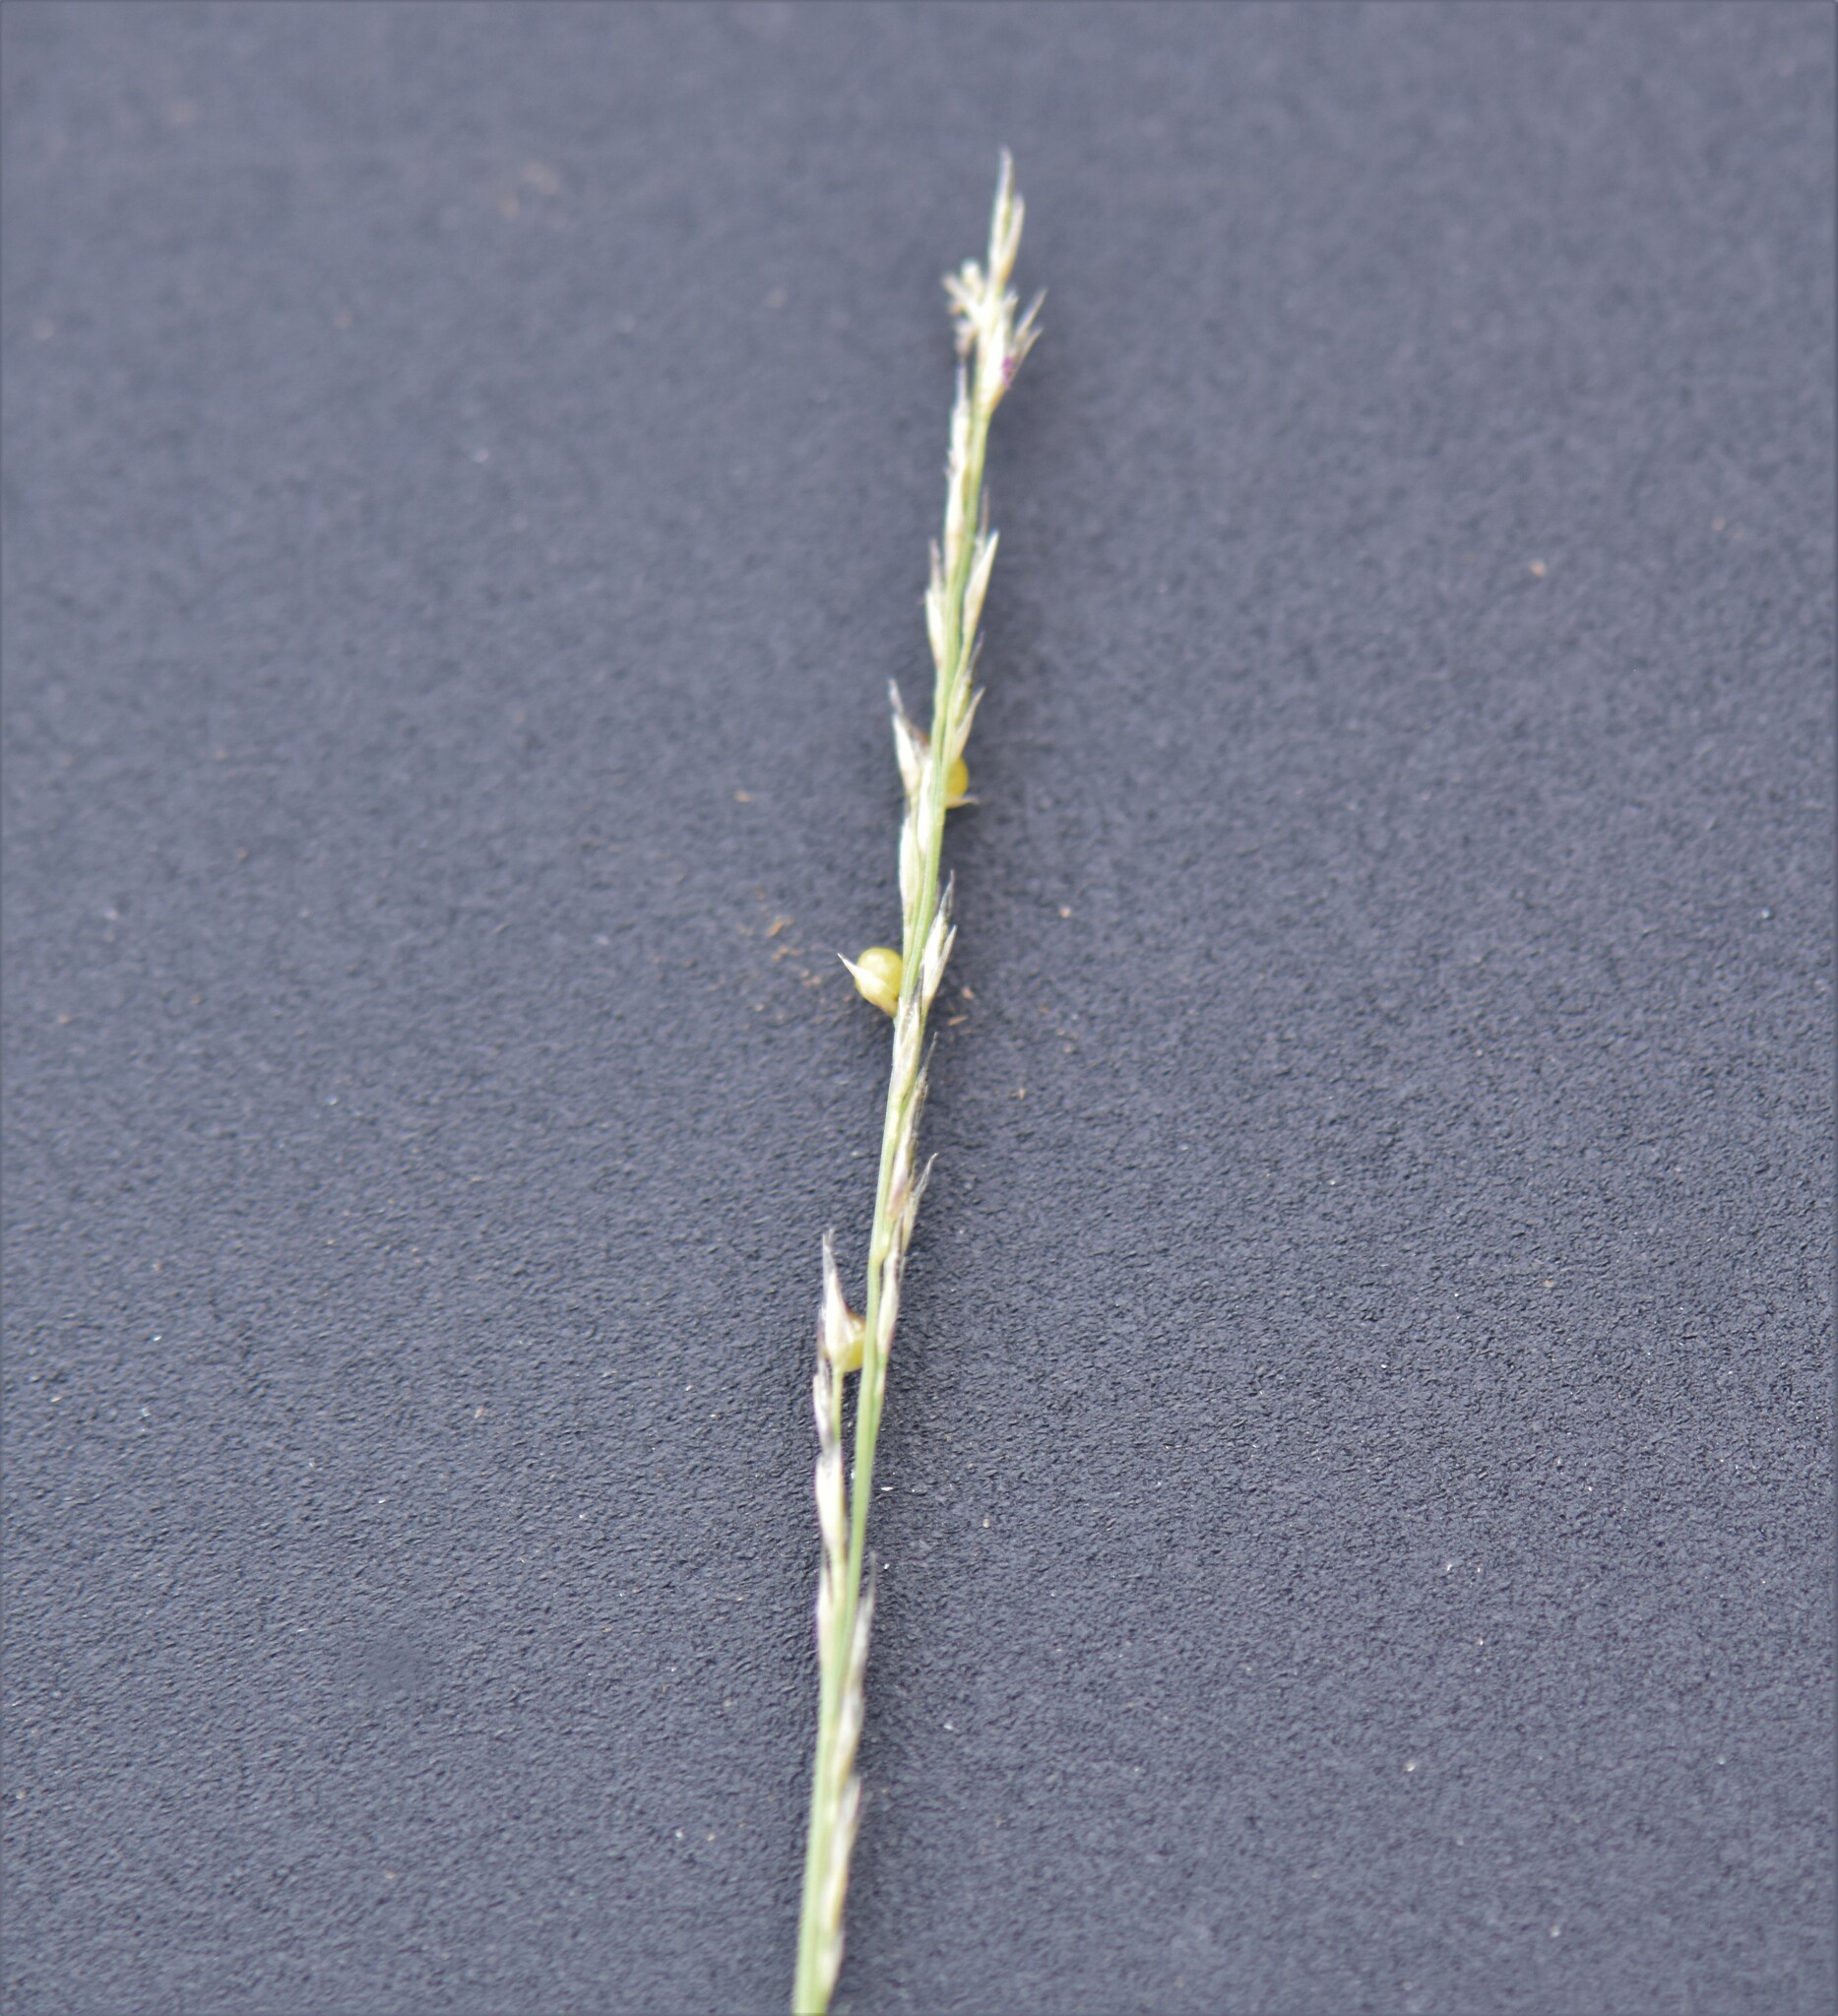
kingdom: Plantae
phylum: Tracheophyta
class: Liliopsida
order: Poales
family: Poaceae
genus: Muhlenbergia
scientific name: Muhlenbergia cuspidata
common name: Plains muhly
